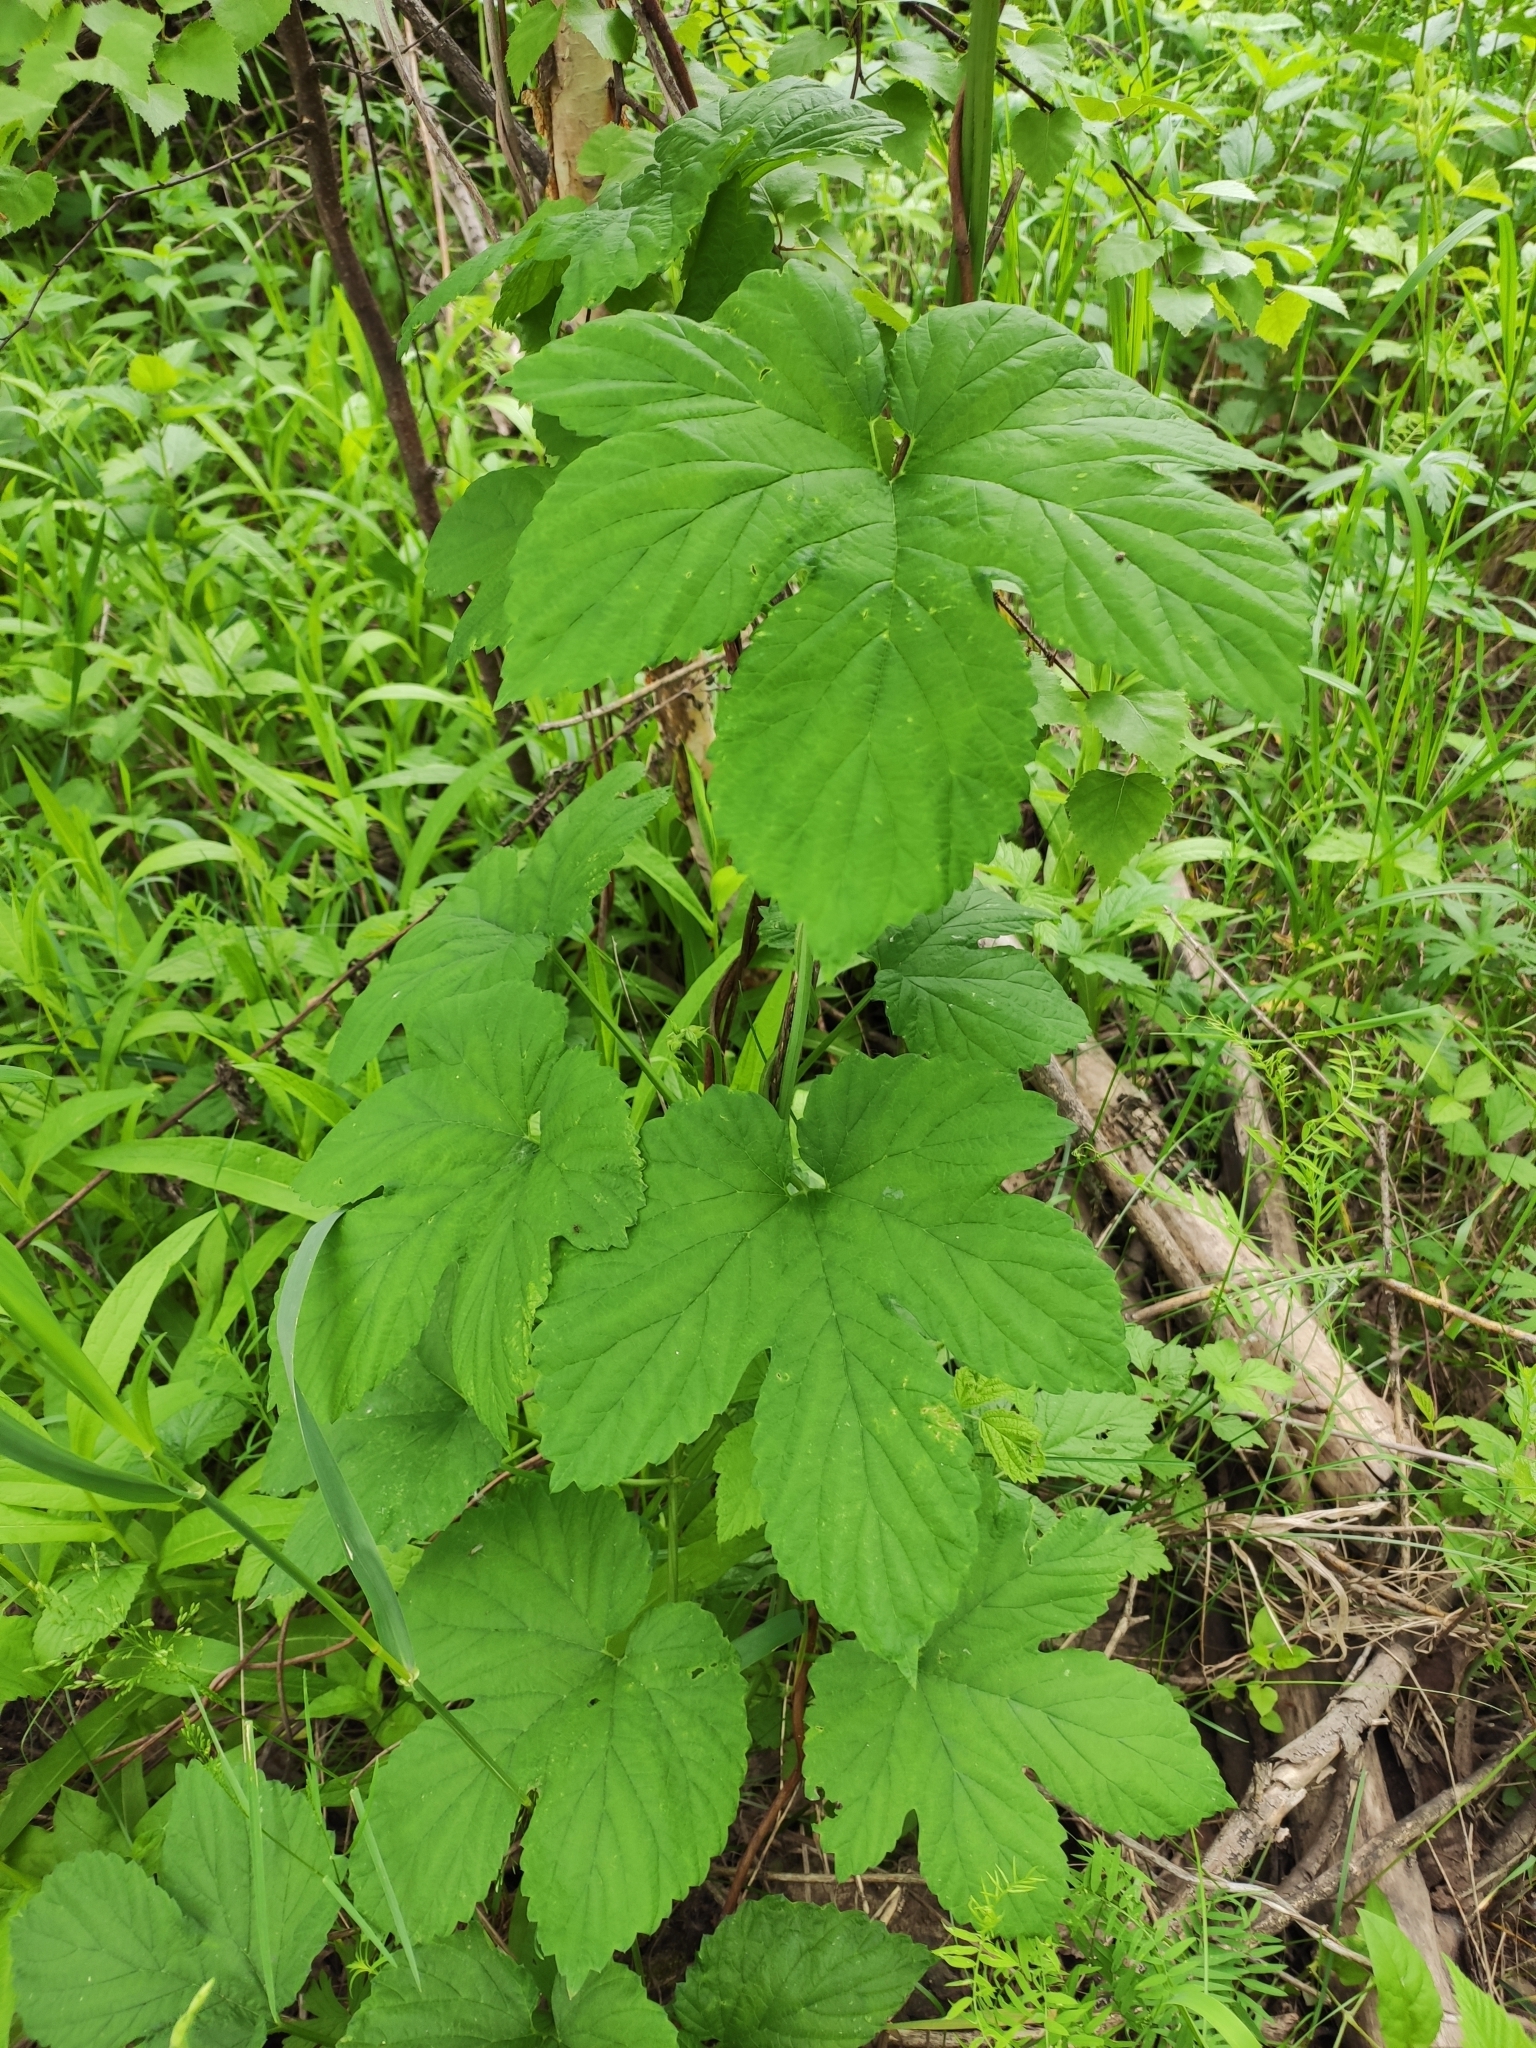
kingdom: Plantae
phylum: Tracheophyta
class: Magnoliopsida
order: Rosales
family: Cannabaceae
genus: Humulus
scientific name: Humulus lupulus
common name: Hop
